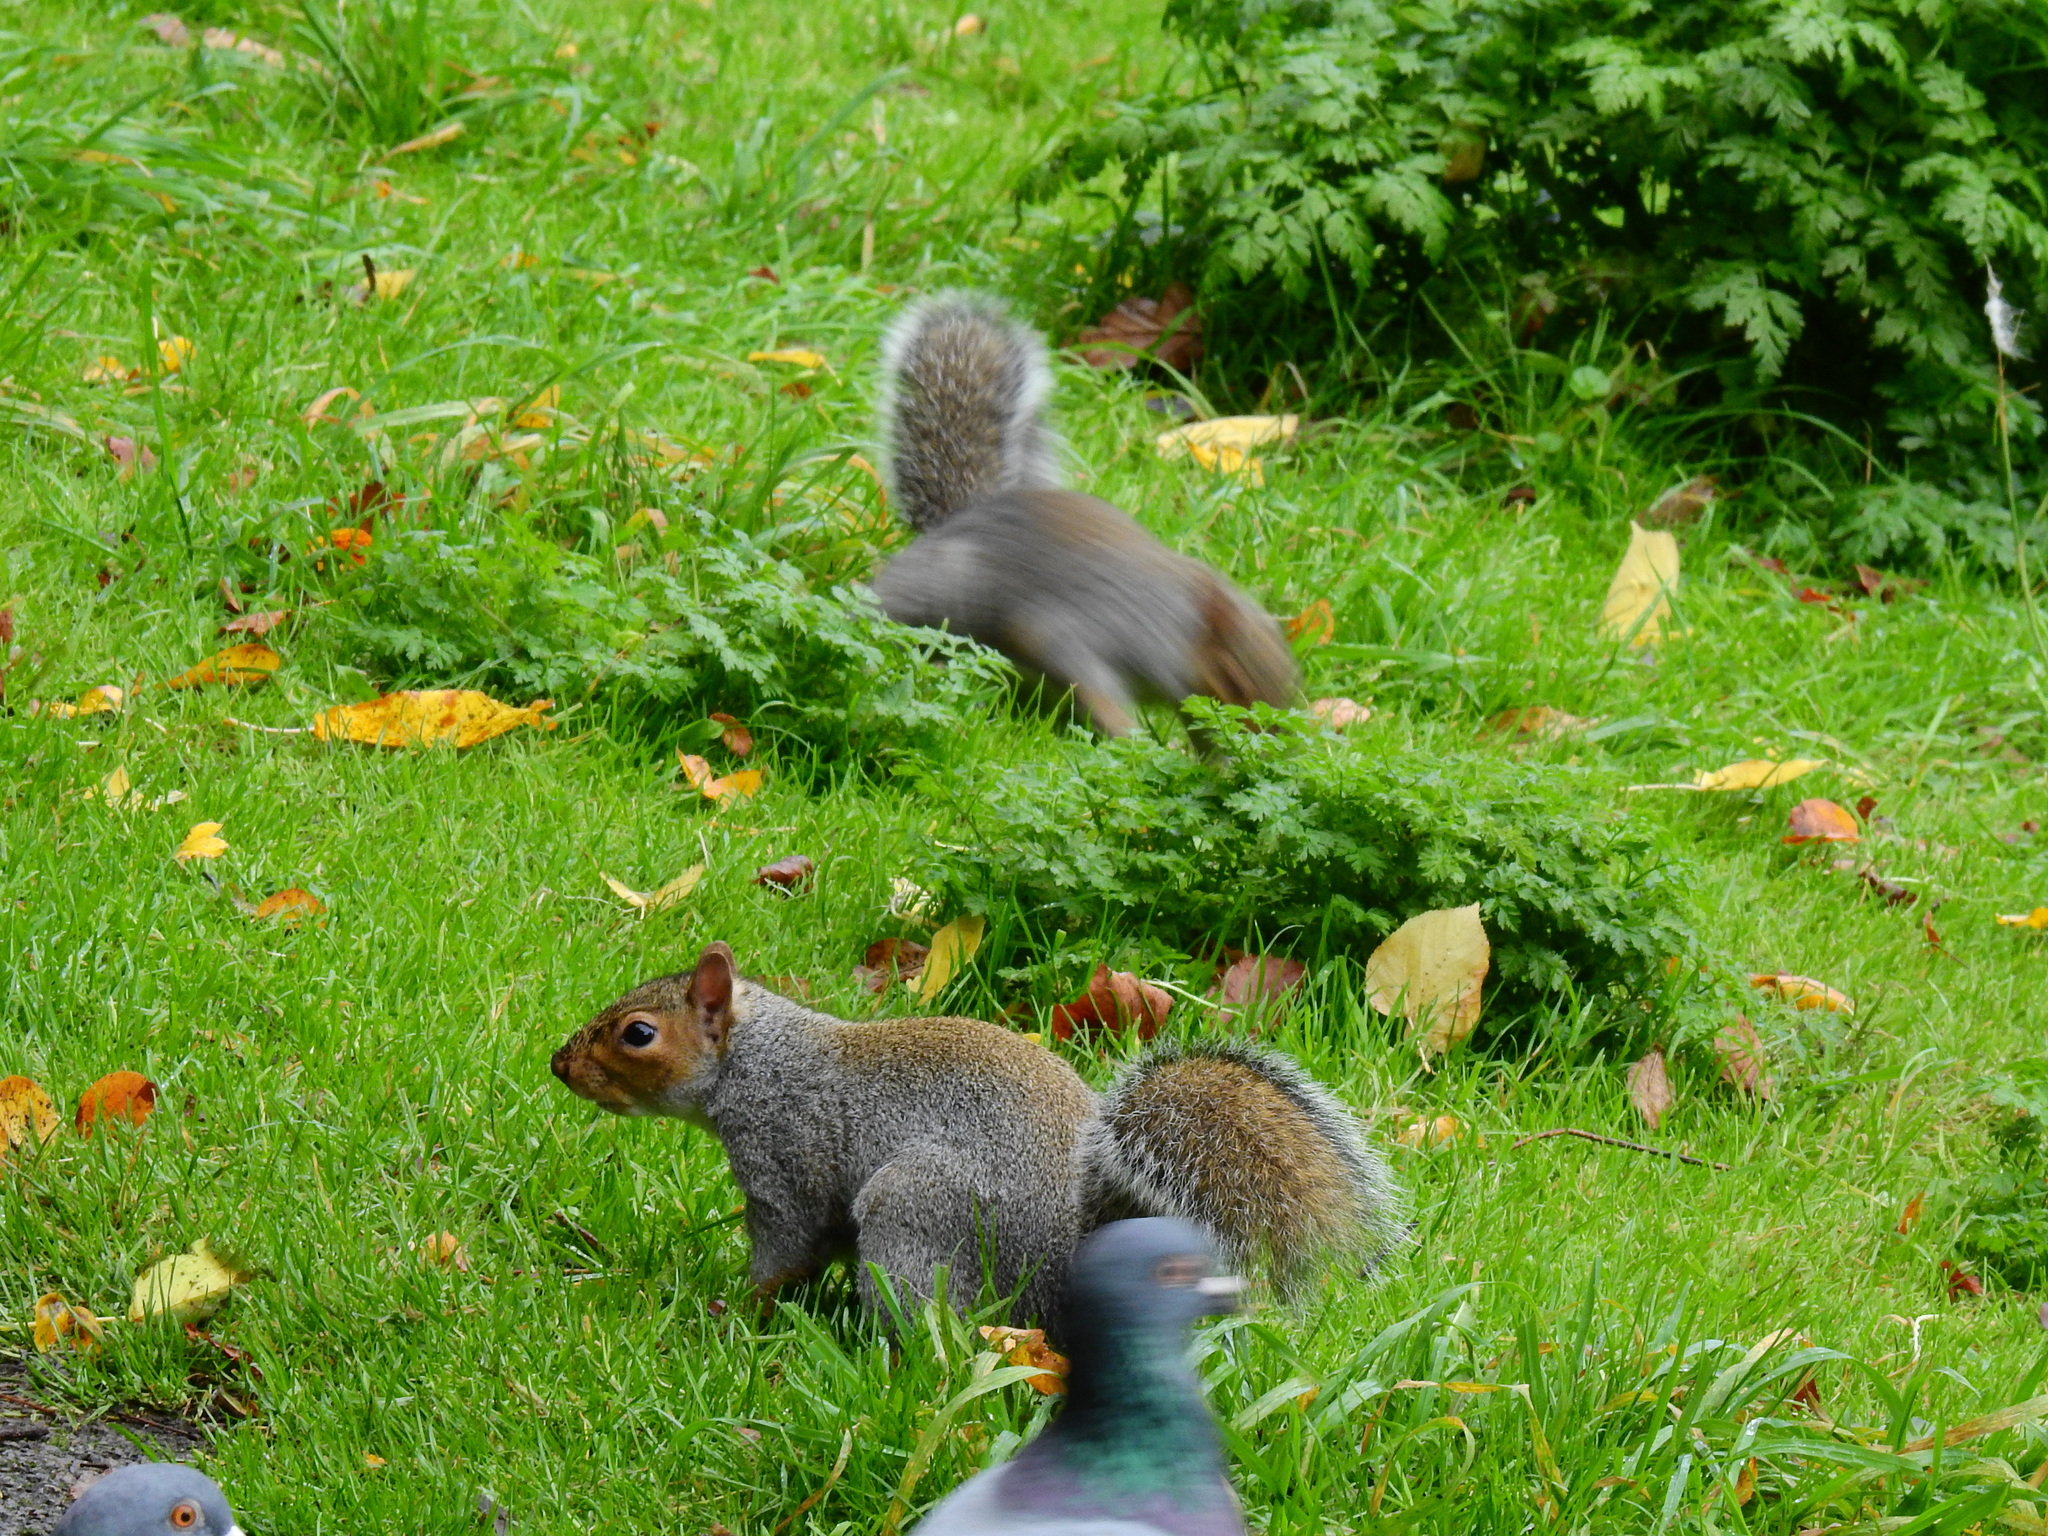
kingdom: Animalia
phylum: Chordata
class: Mammalia
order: Rodentia
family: Sciuridae
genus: Sciurus
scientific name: Sciurus carolinensis
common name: Eastern gray squirrel
